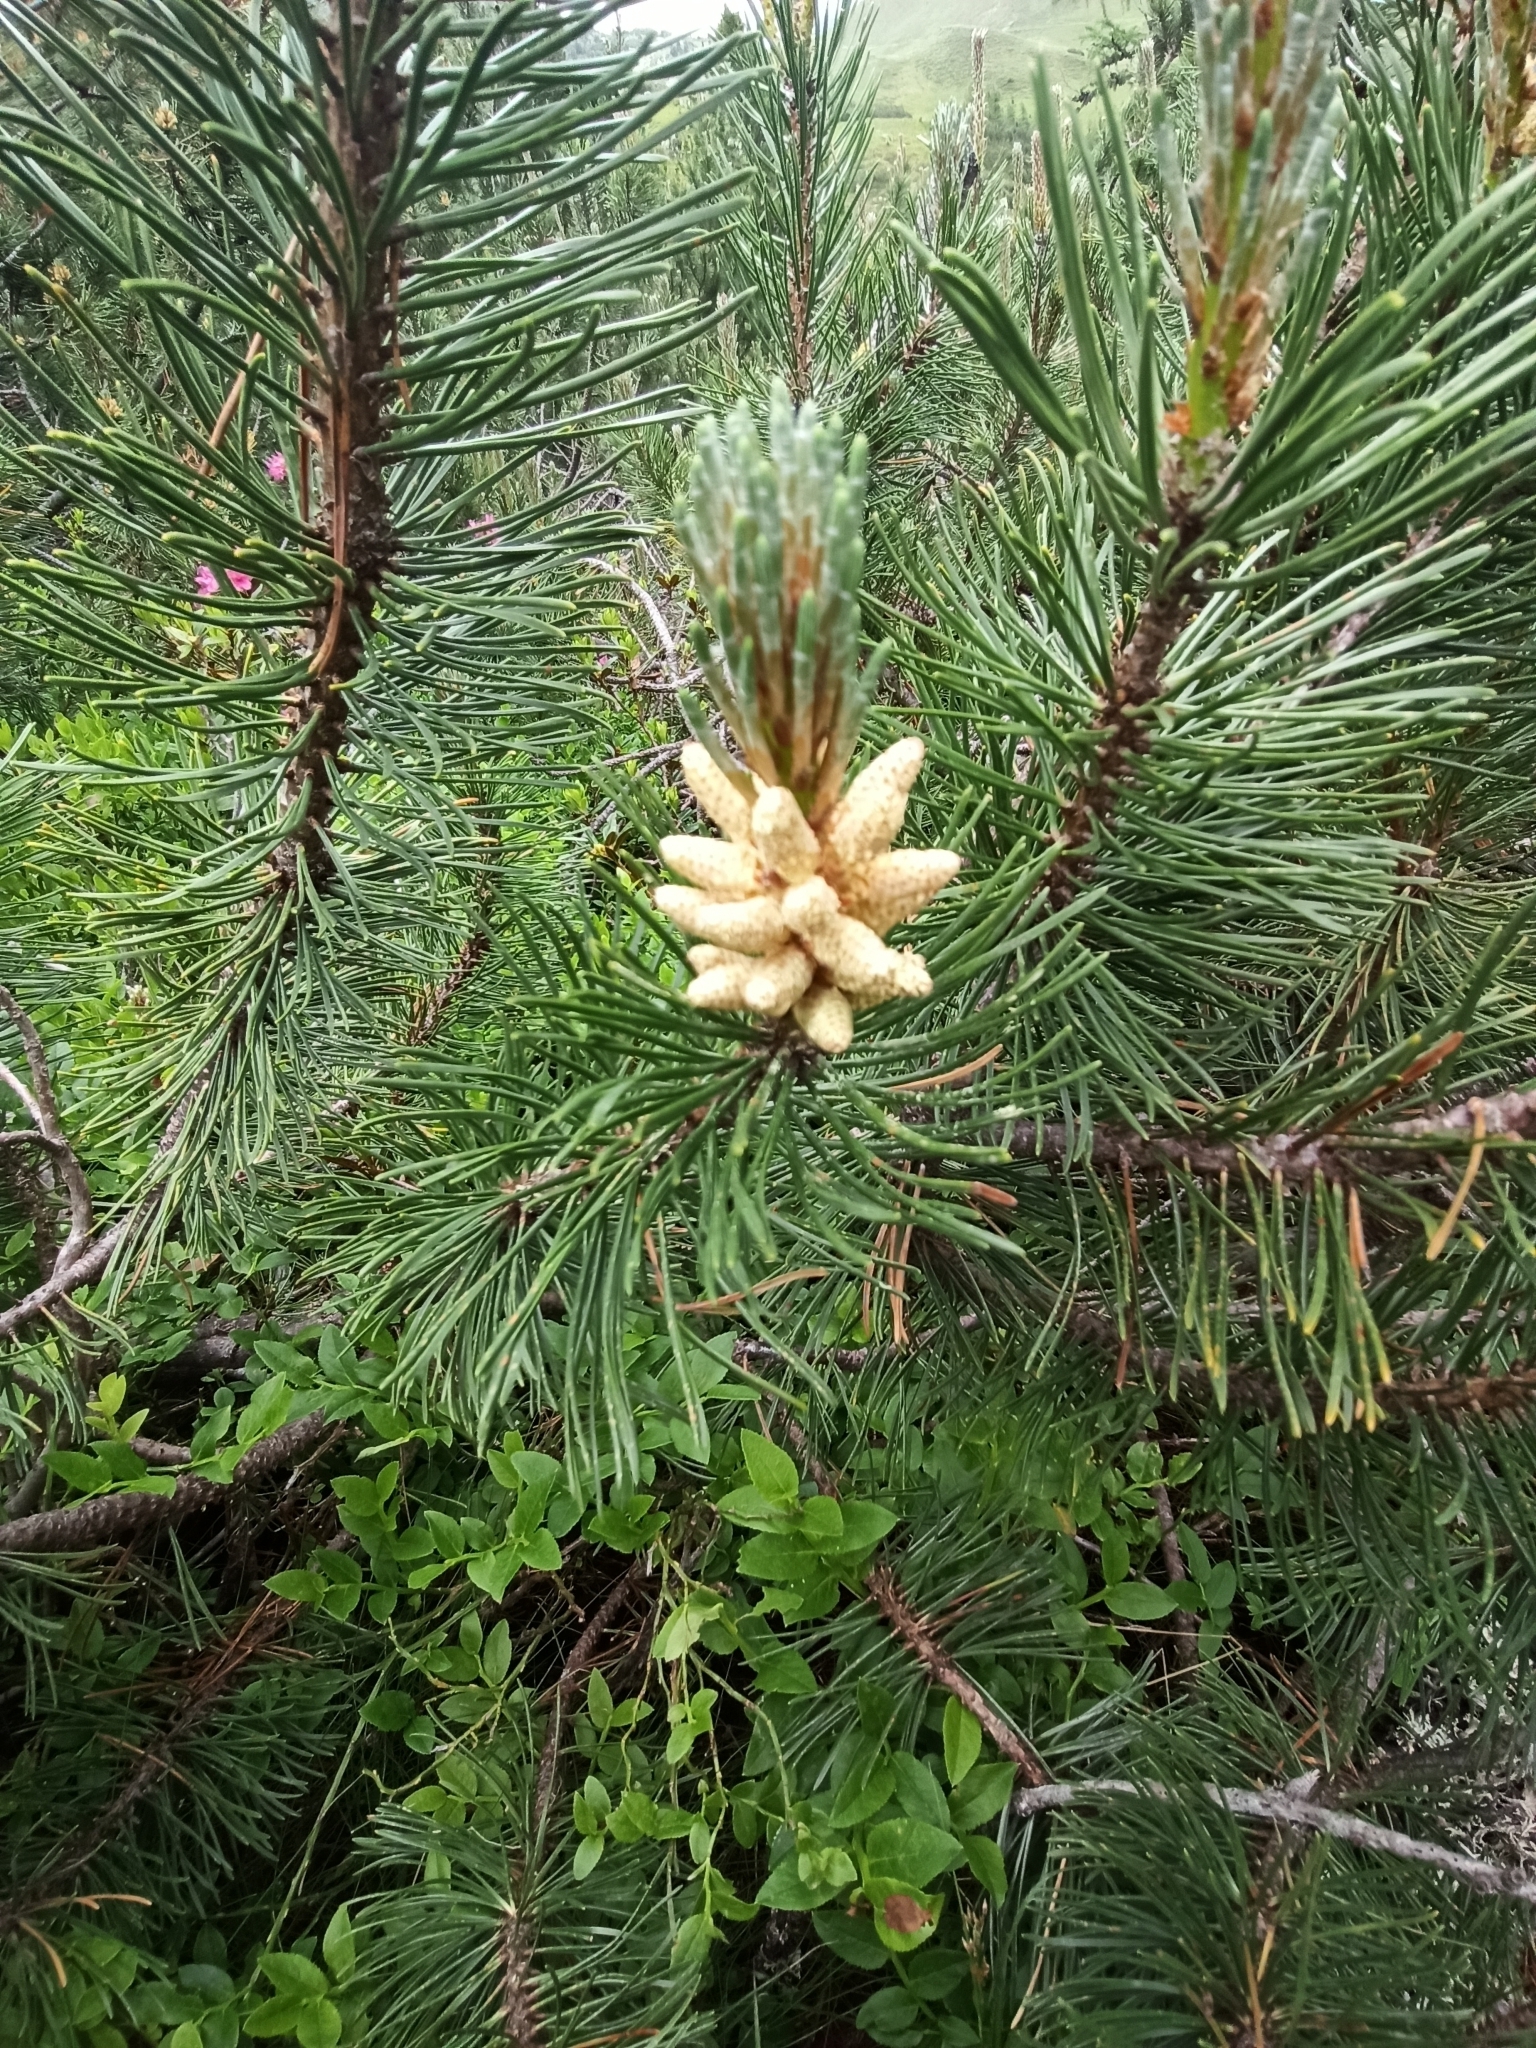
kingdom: Plantae
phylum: Tracheophyta
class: Pinopsida
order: Pinales
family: Pinaceae
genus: Pinus
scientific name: Pinus mugo
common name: Mugo pine
